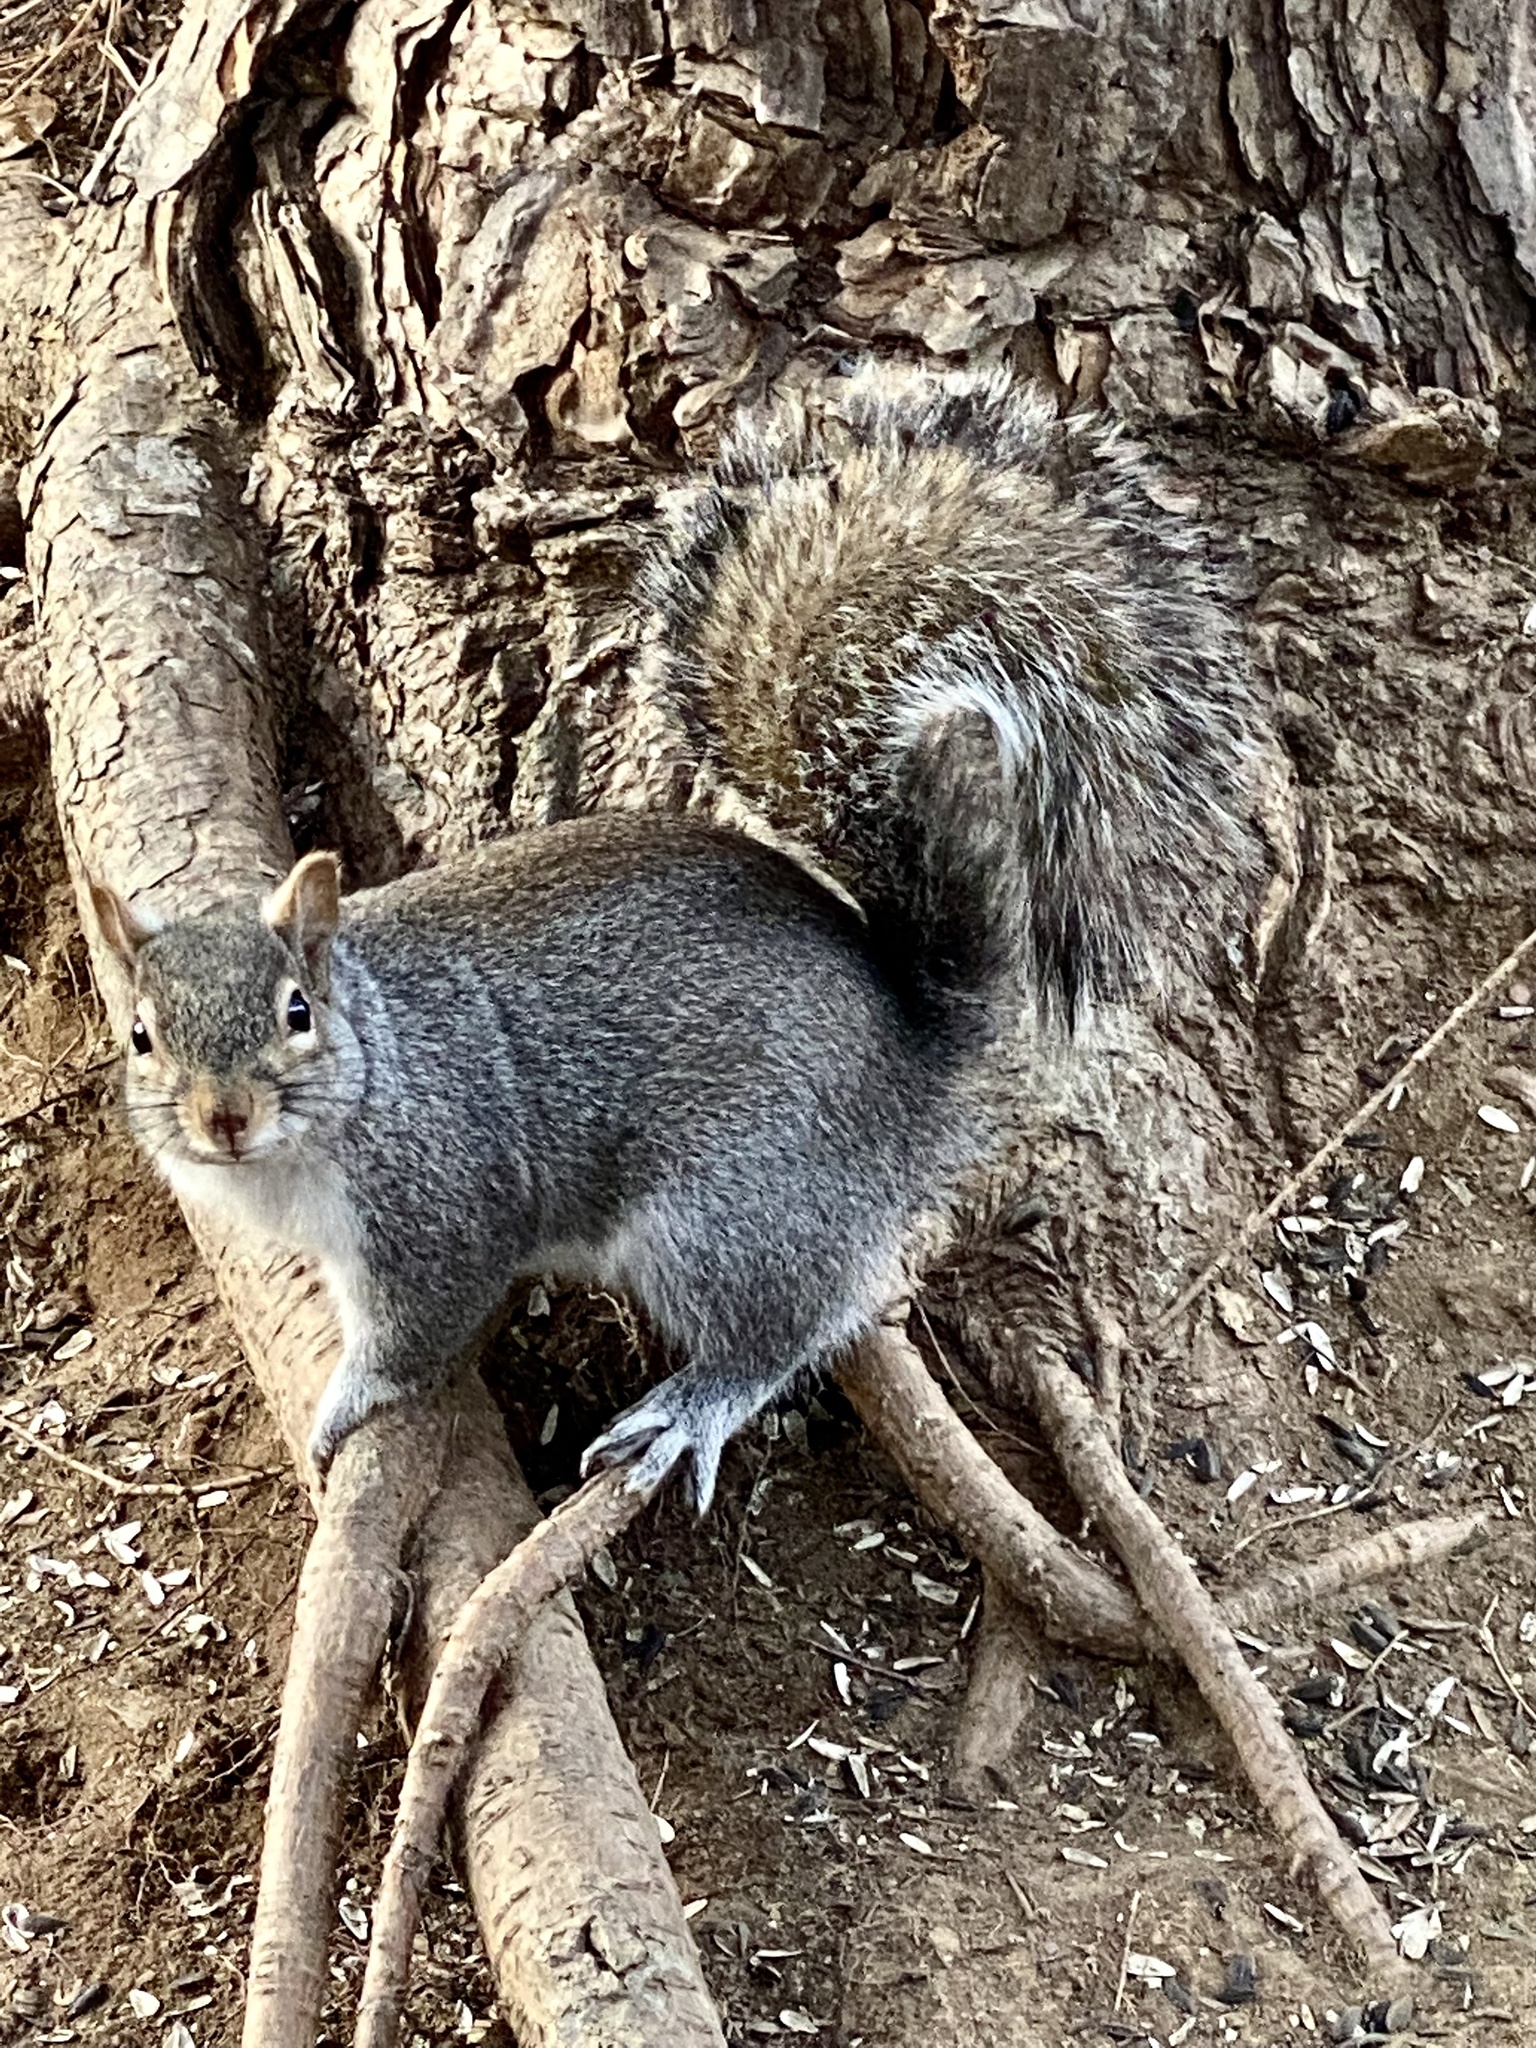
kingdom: Animalia
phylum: Chordata
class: Mammalia
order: Rodentia
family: Sciuridae
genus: Sciurus
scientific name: Sciurus carolinensis
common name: Eastern gray squirrel
